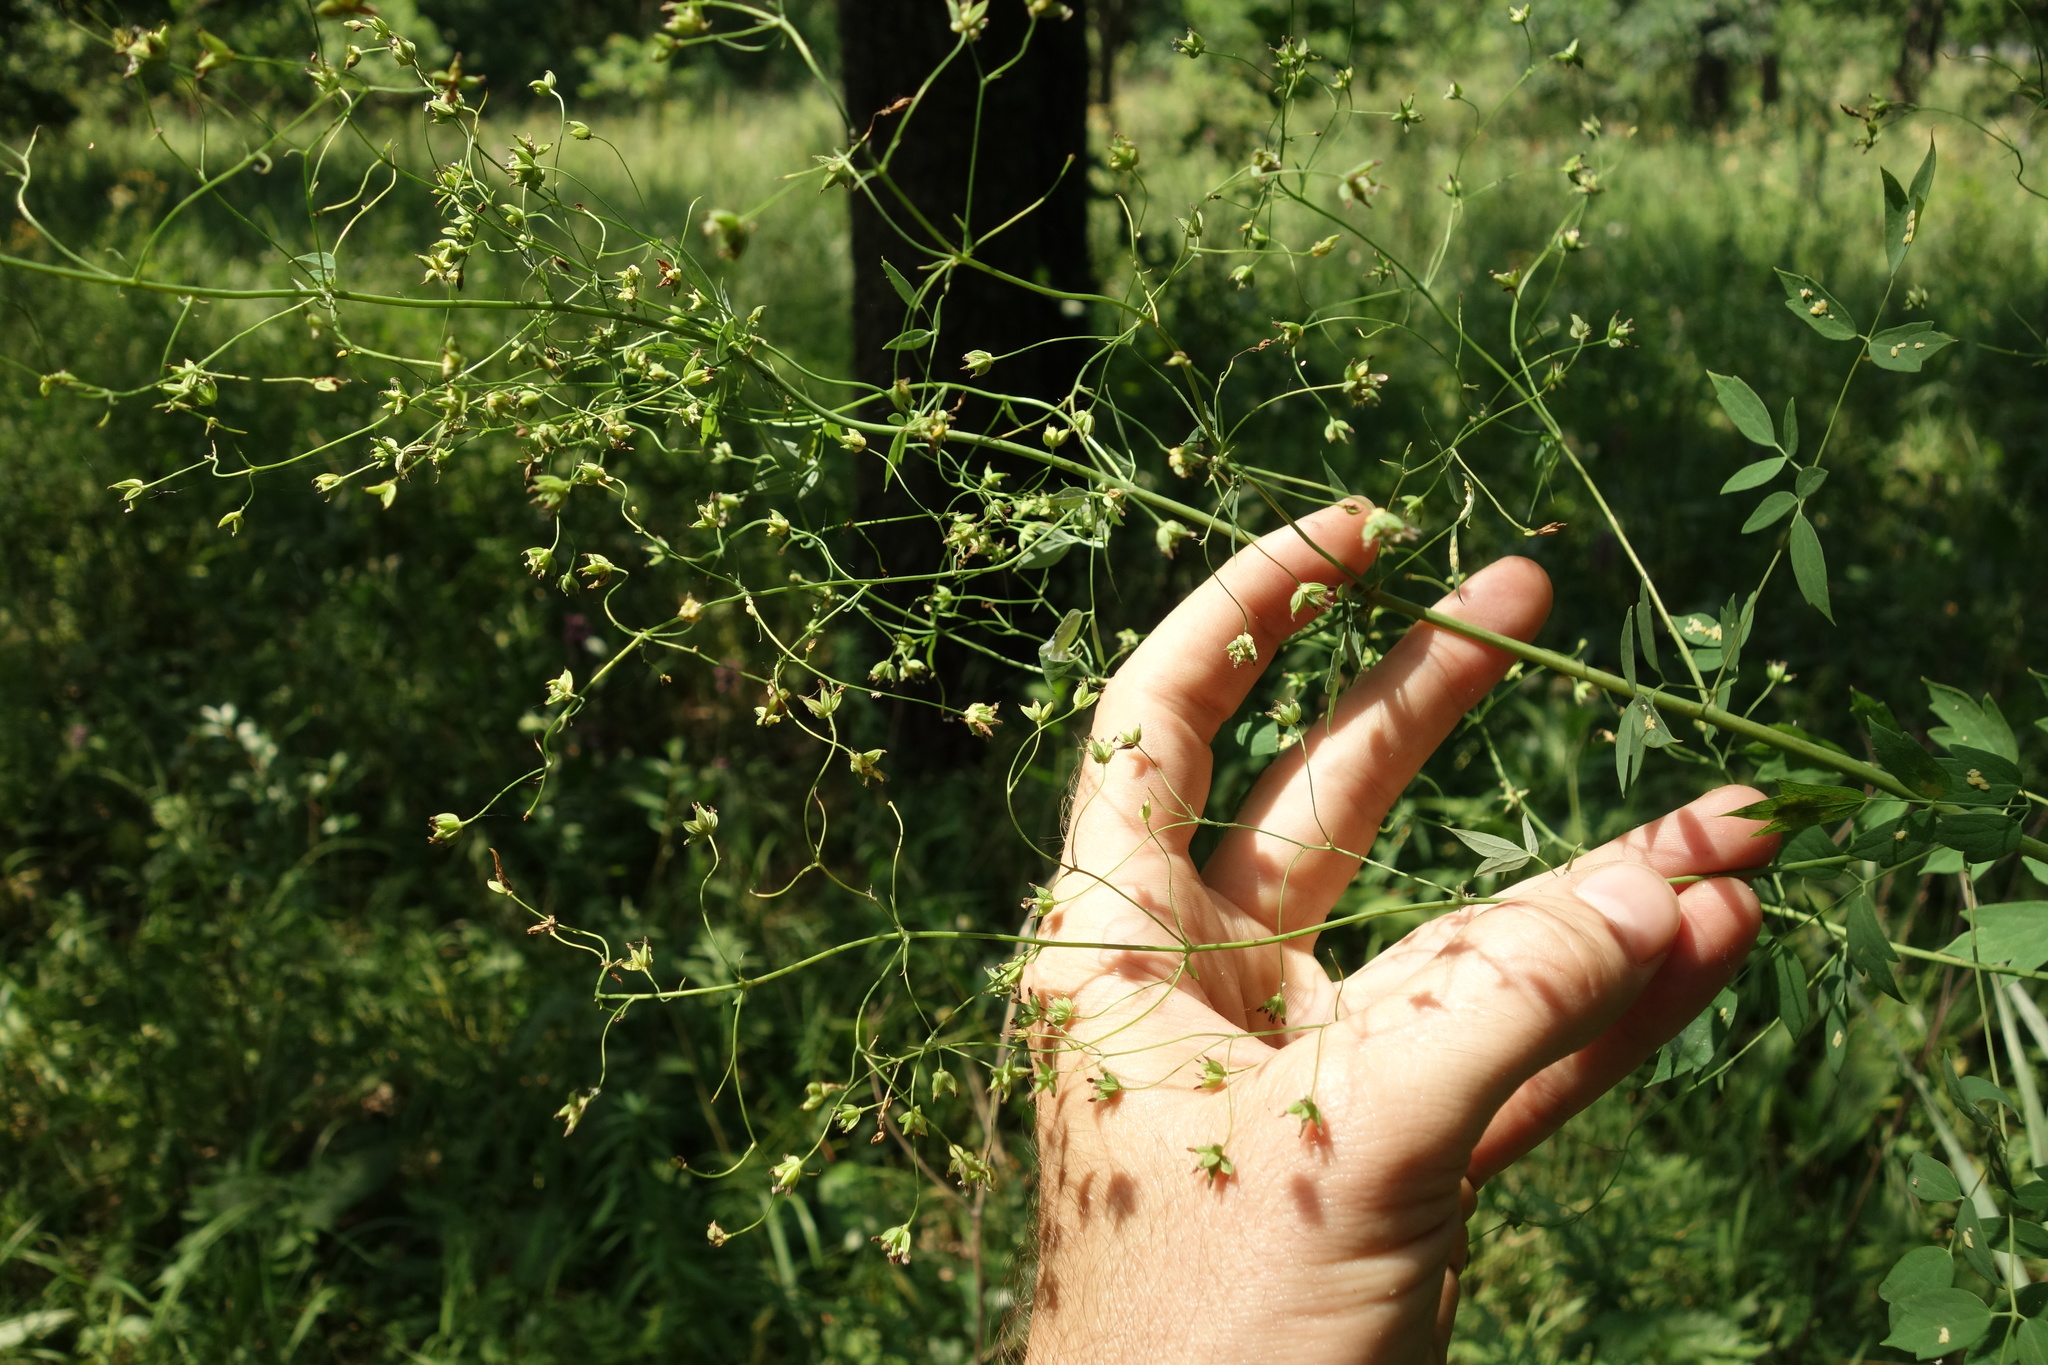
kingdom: Plantae
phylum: Tracheophyta
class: Magnoliopsida
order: Ranunculales
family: Ranunculaceae
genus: Thalictrum
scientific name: Thalictrum minus
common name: Lesser meadow-rue
